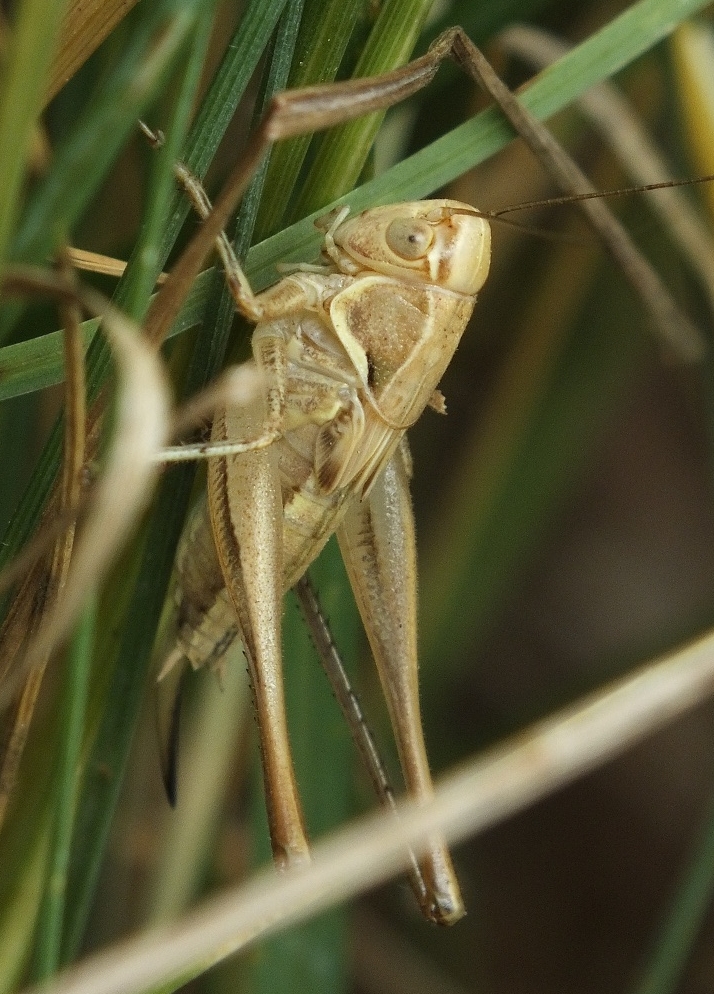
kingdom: Animalia
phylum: Arthropoda
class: Insecta
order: Orthoptera
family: Tettigoniidae
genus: Tessellana
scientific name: Tessellana tessellata
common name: Grasshopper
